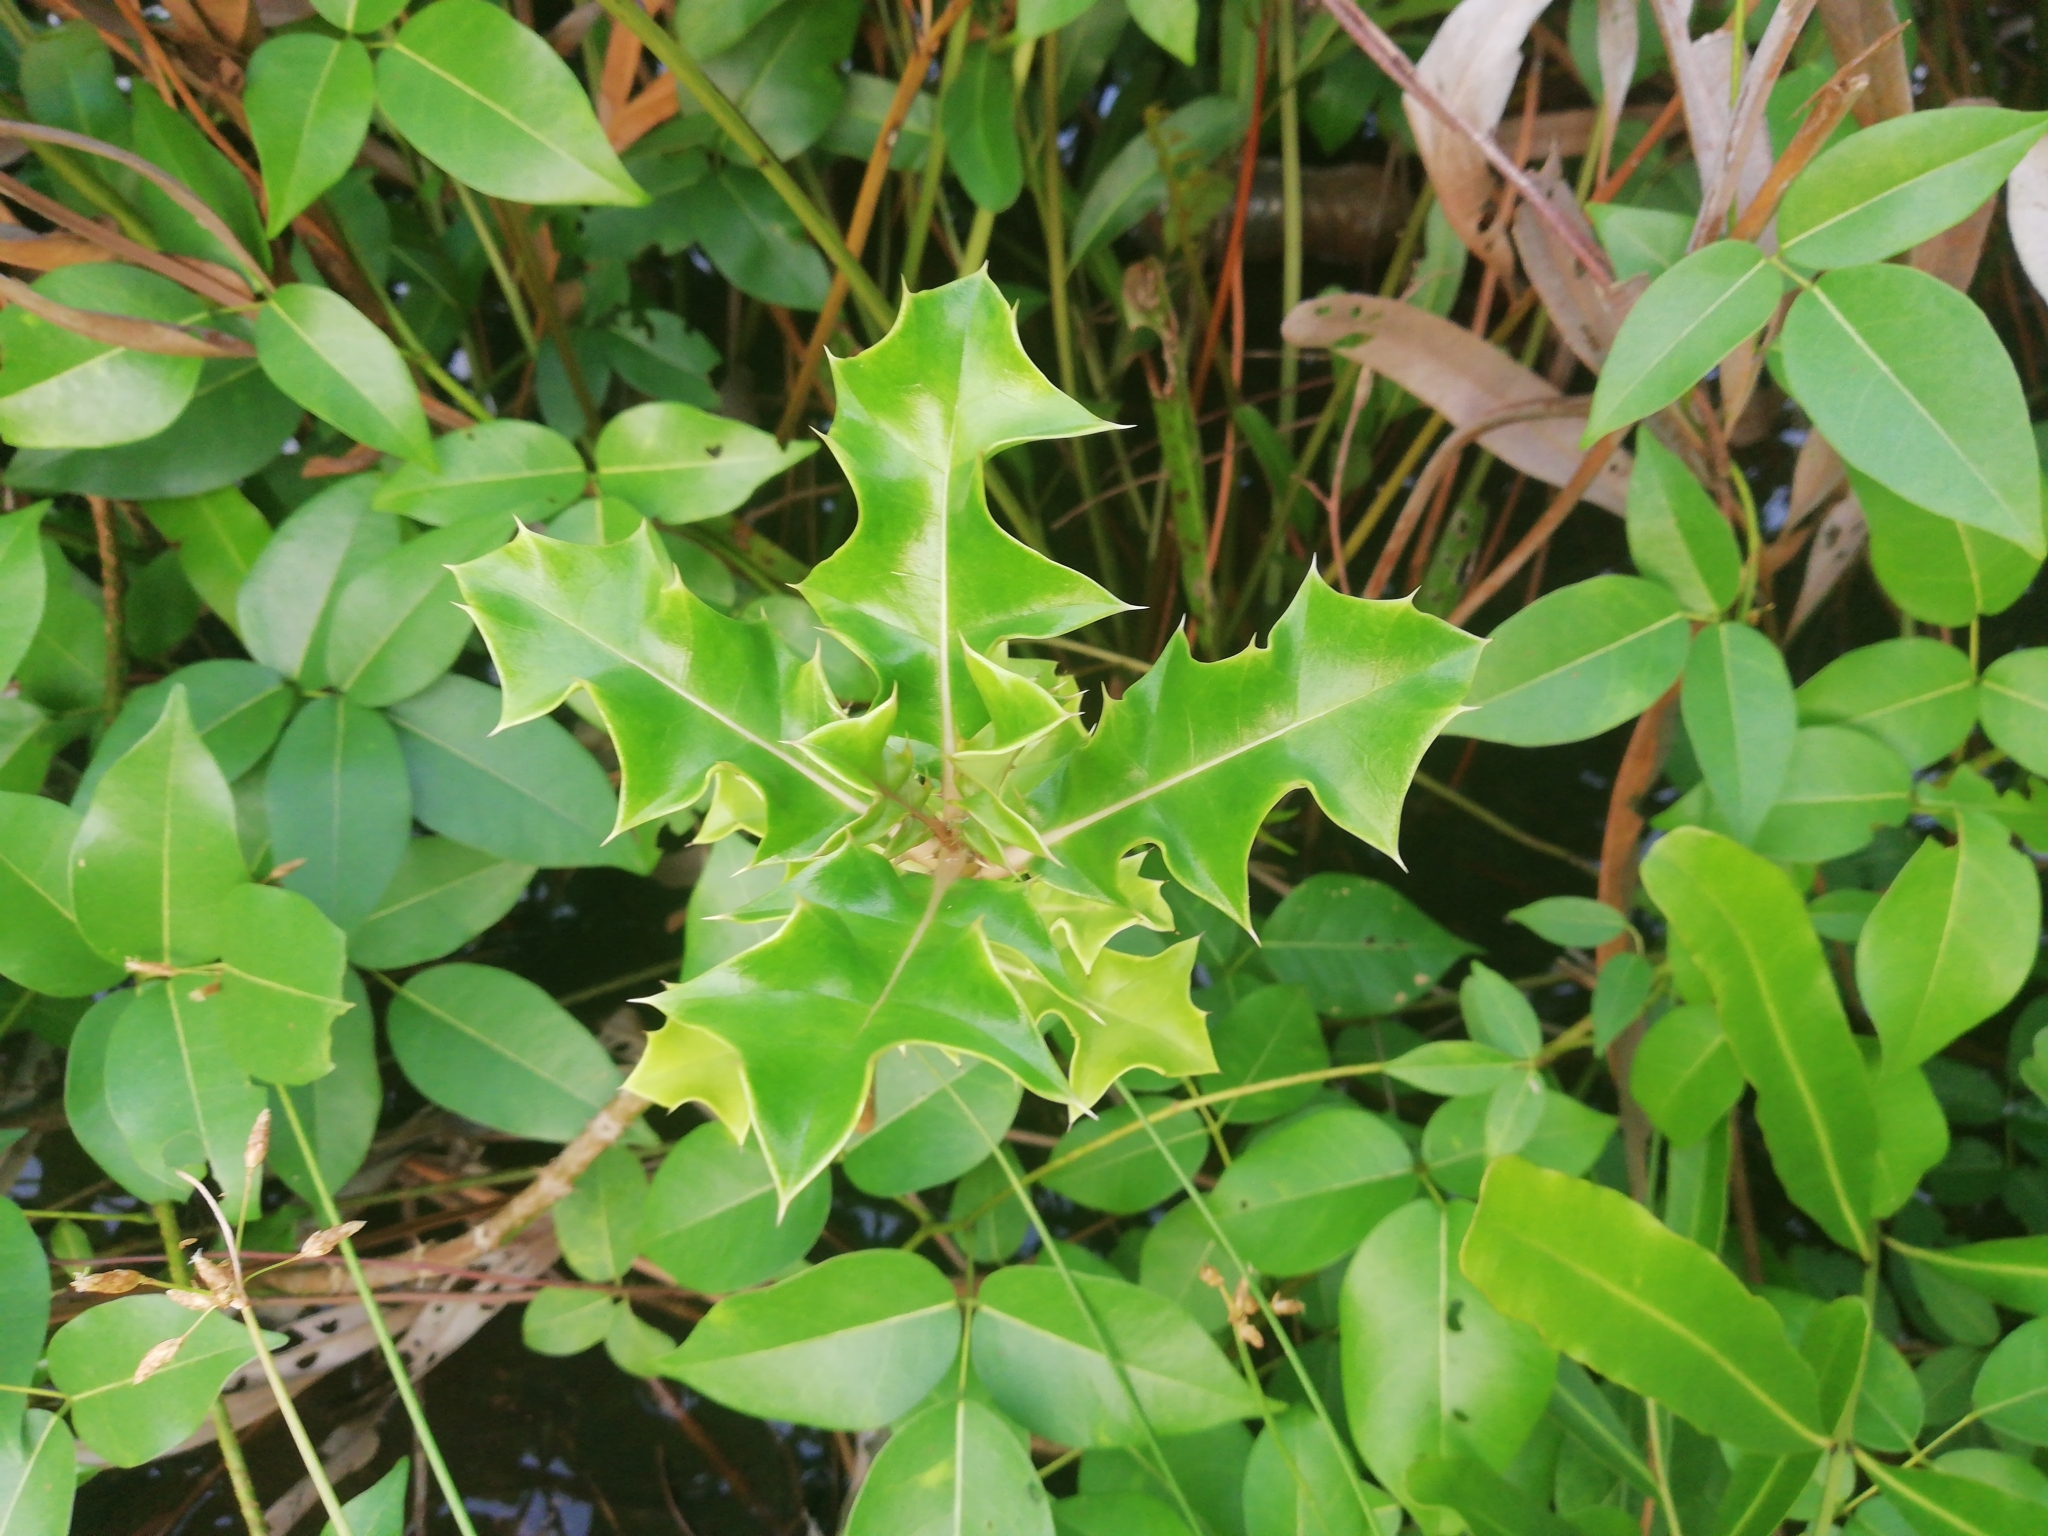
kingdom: Plantae
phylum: Tracheophyta
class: Magnoliopsida
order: Lamiales
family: Acanthaceae
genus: Acanthus
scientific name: Acanthus ilicifolius
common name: Holy mangrove
